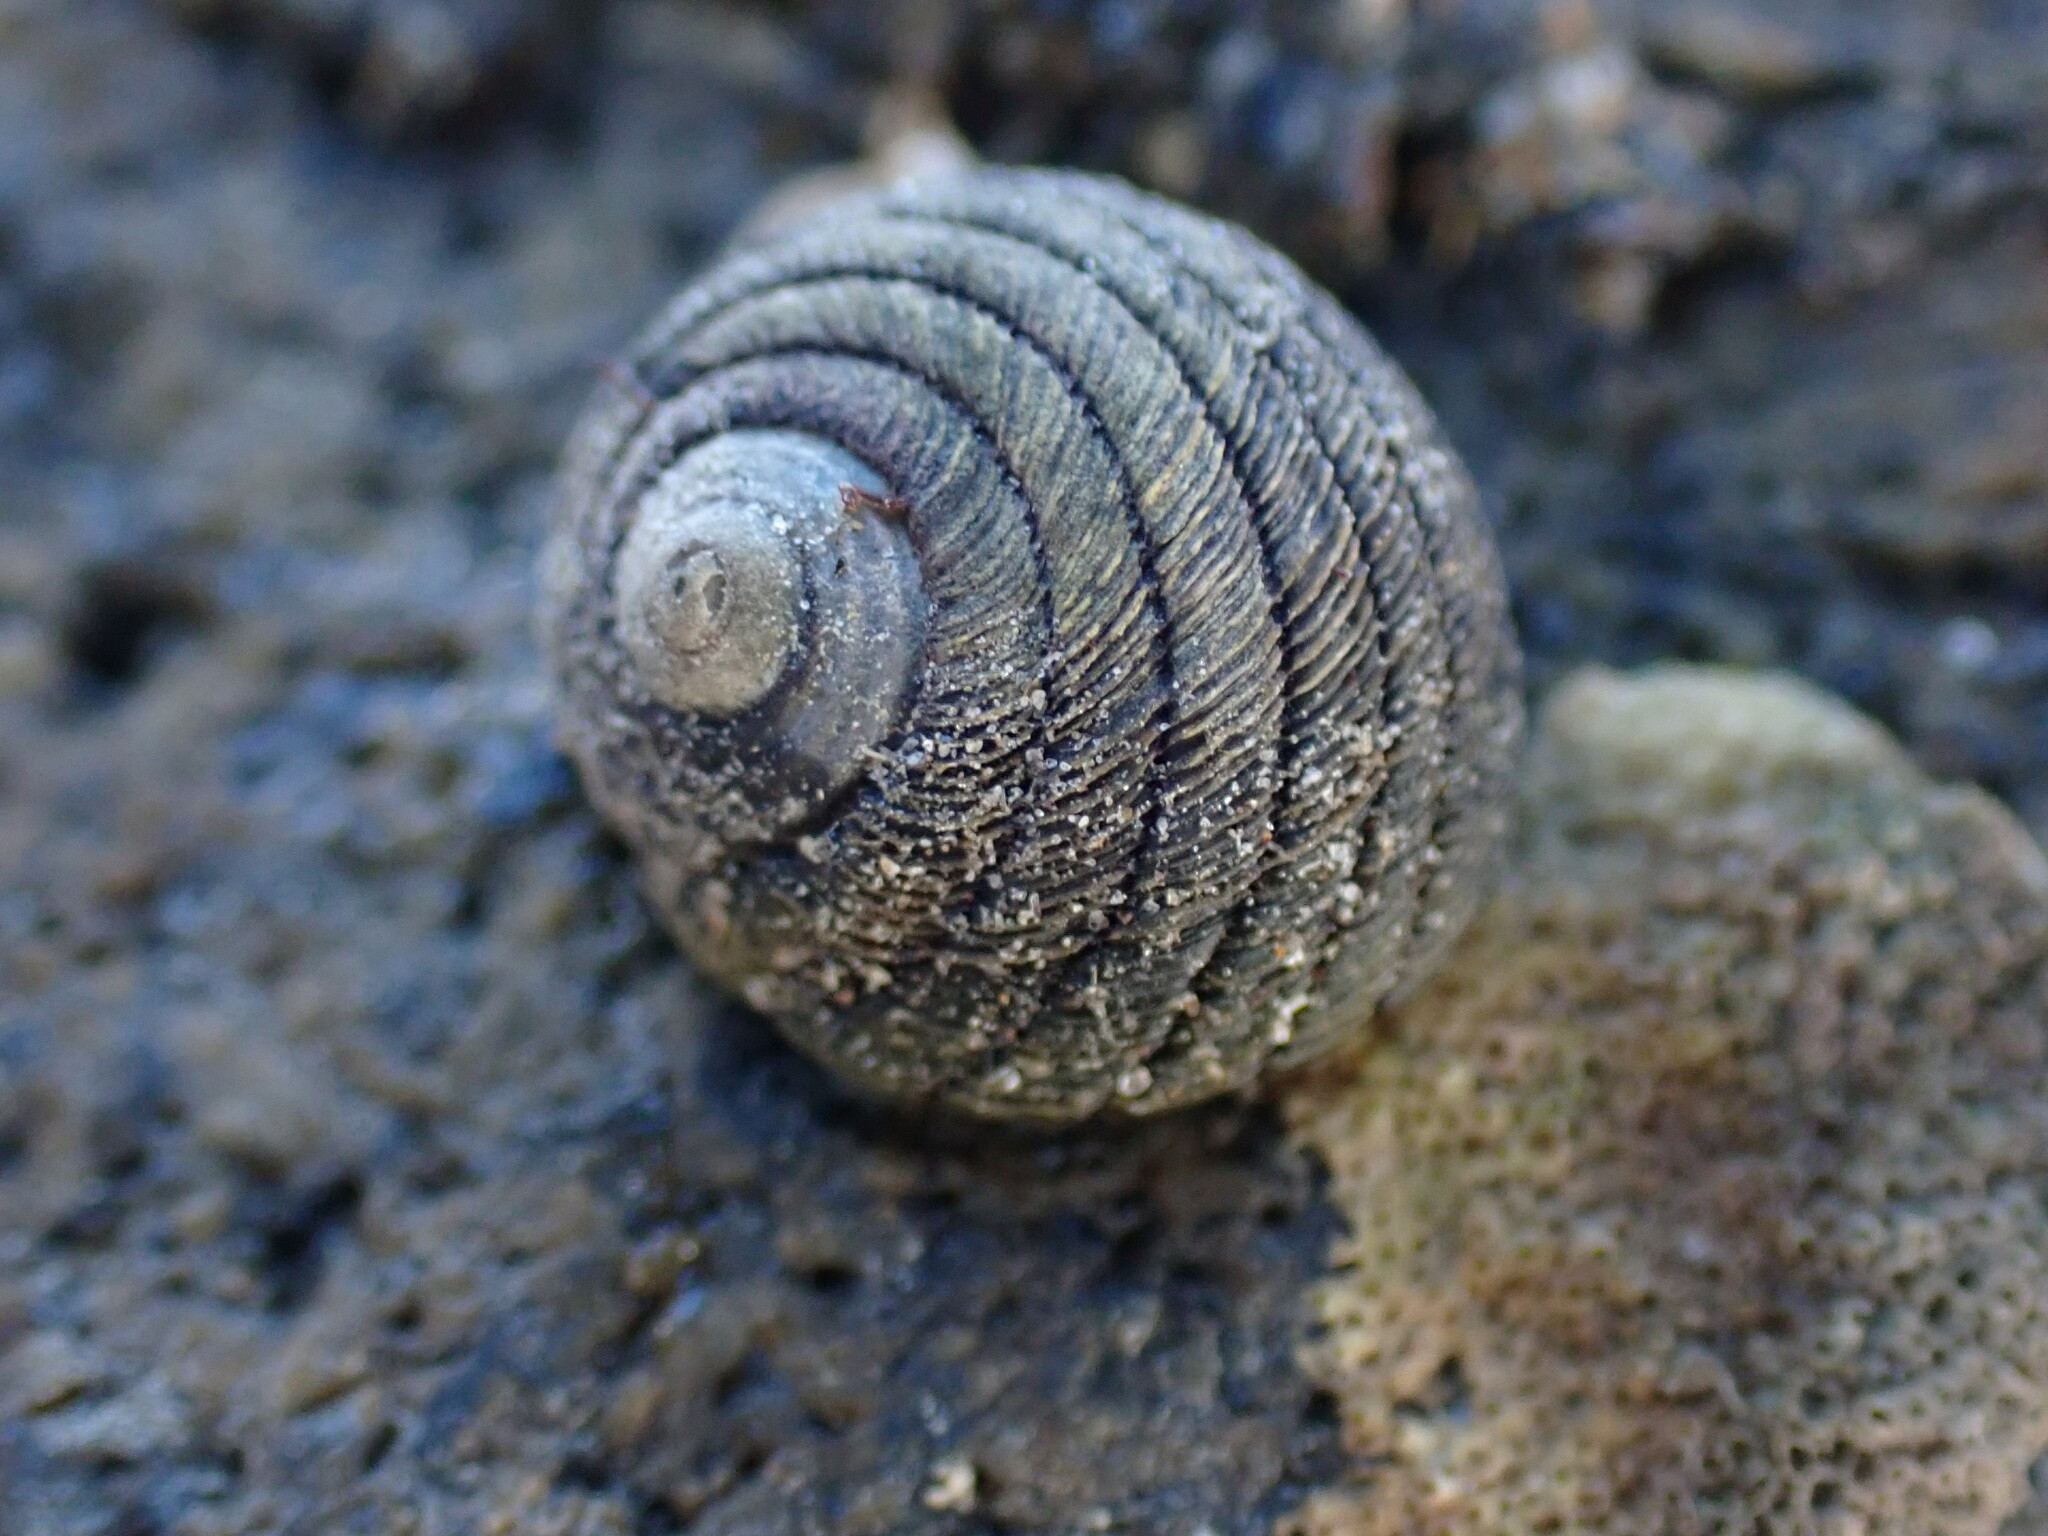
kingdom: Animalia
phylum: Mollusca
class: Gastropoda
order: Trochida
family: Trochidae
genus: Diloma
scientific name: Diloma aethiops
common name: Scorched monodont
